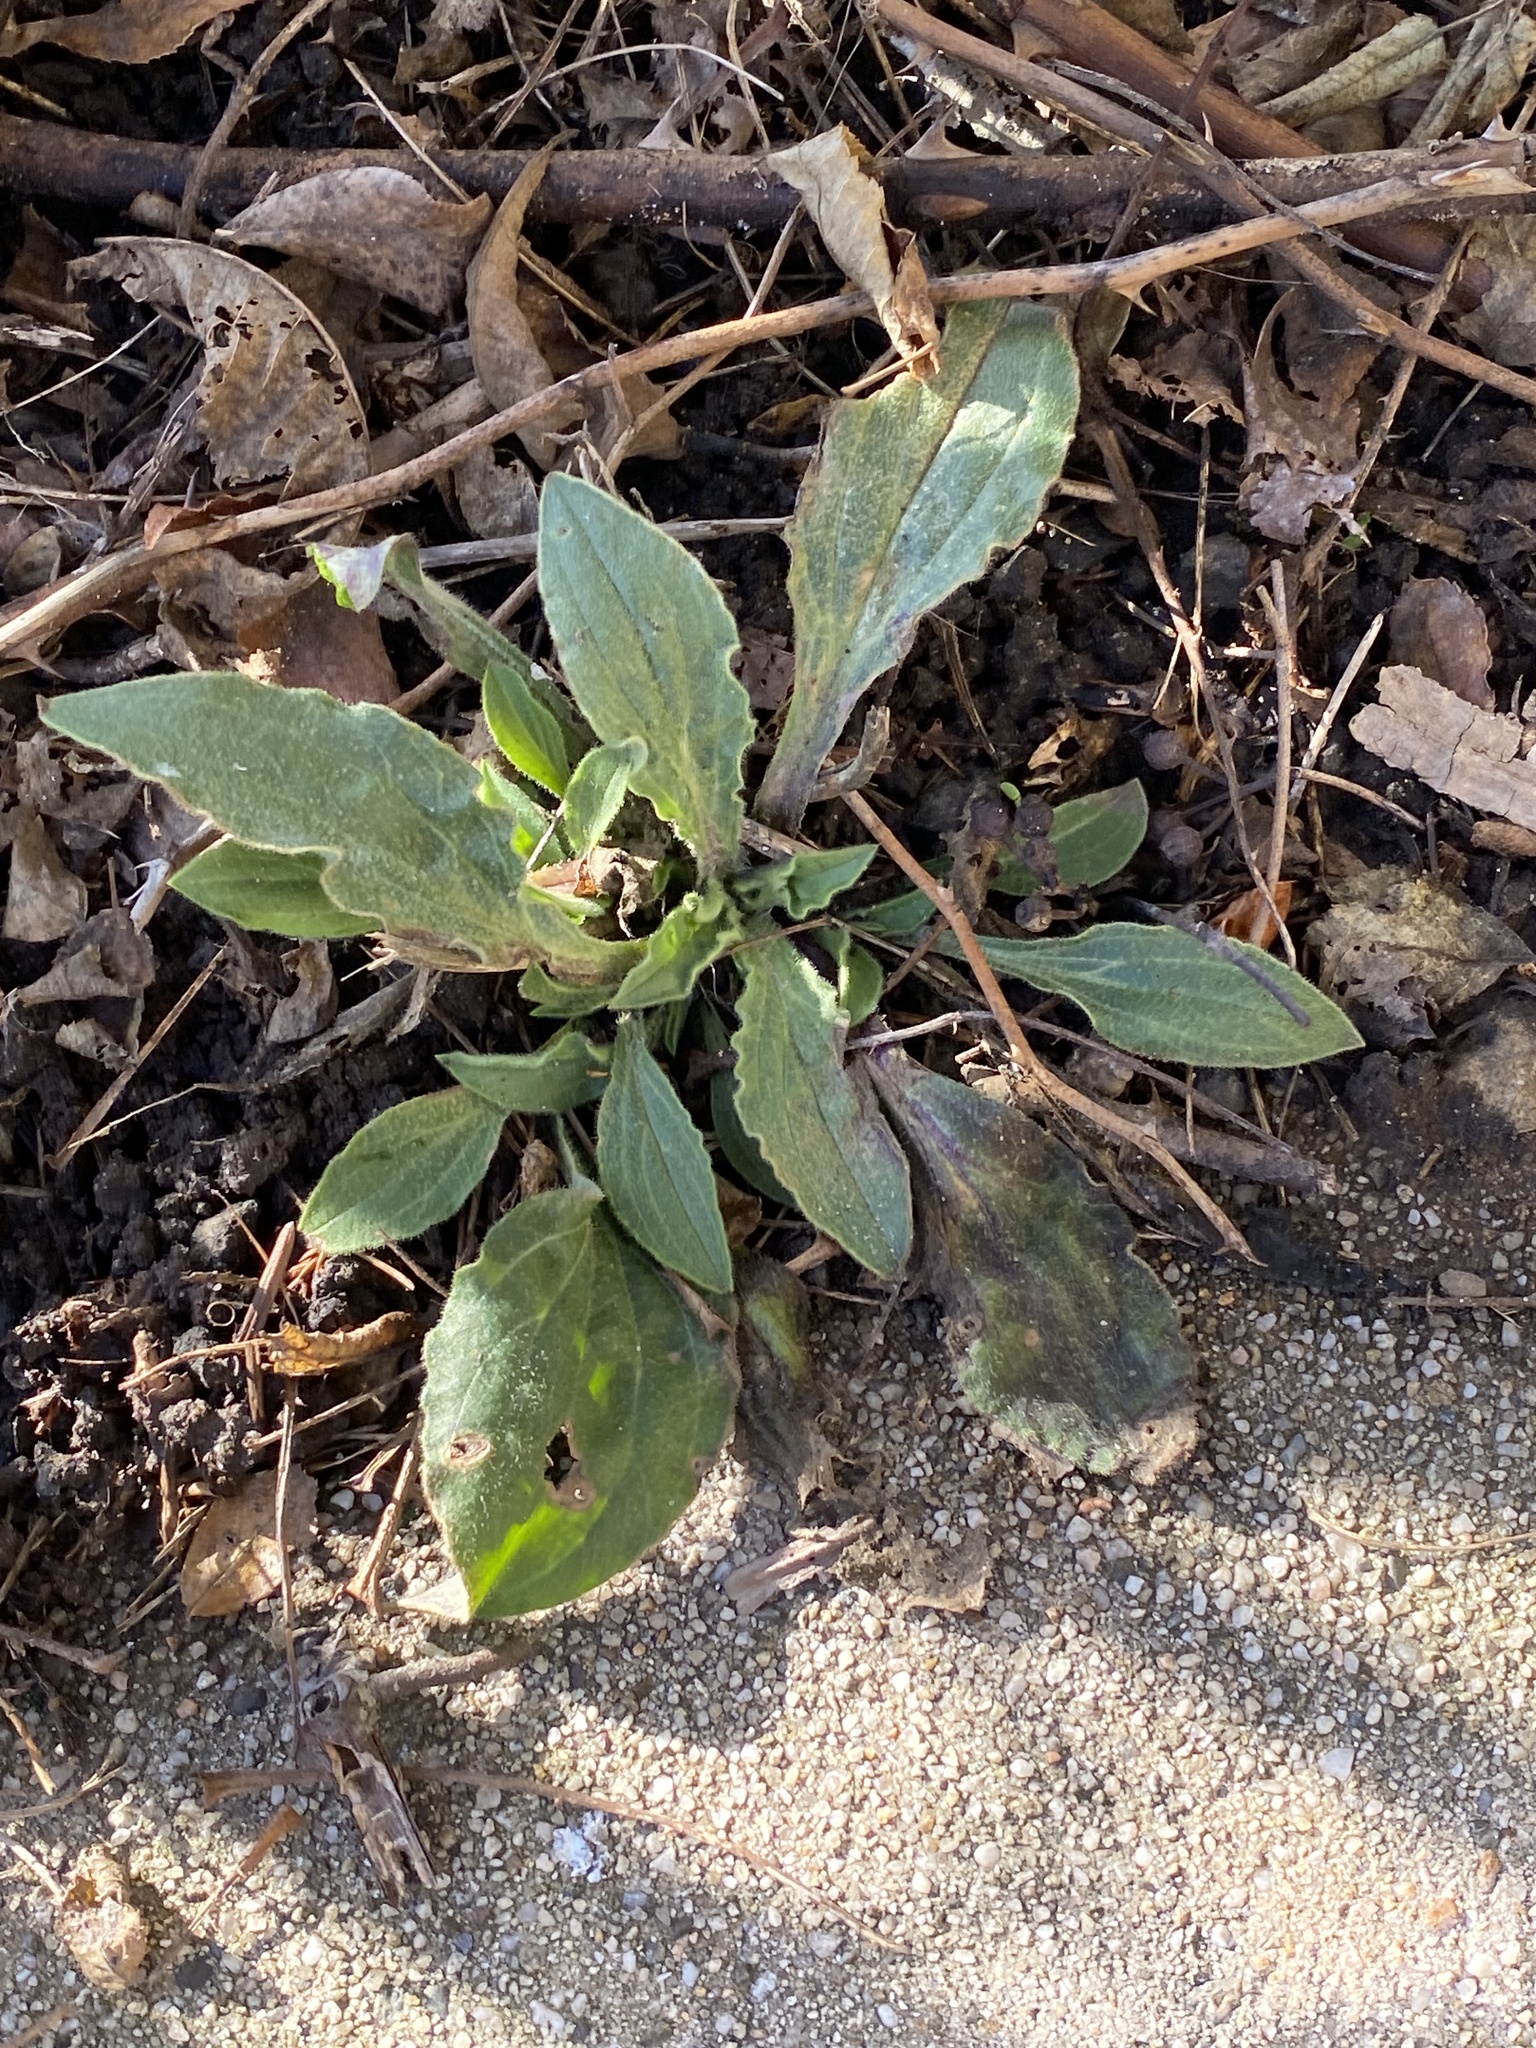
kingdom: Plantae
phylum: Tracheophyta
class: Magnoliopsida
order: Caryophyllales
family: Caryophyllaceae
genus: Silene
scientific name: Silene latifolia
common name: White campion
